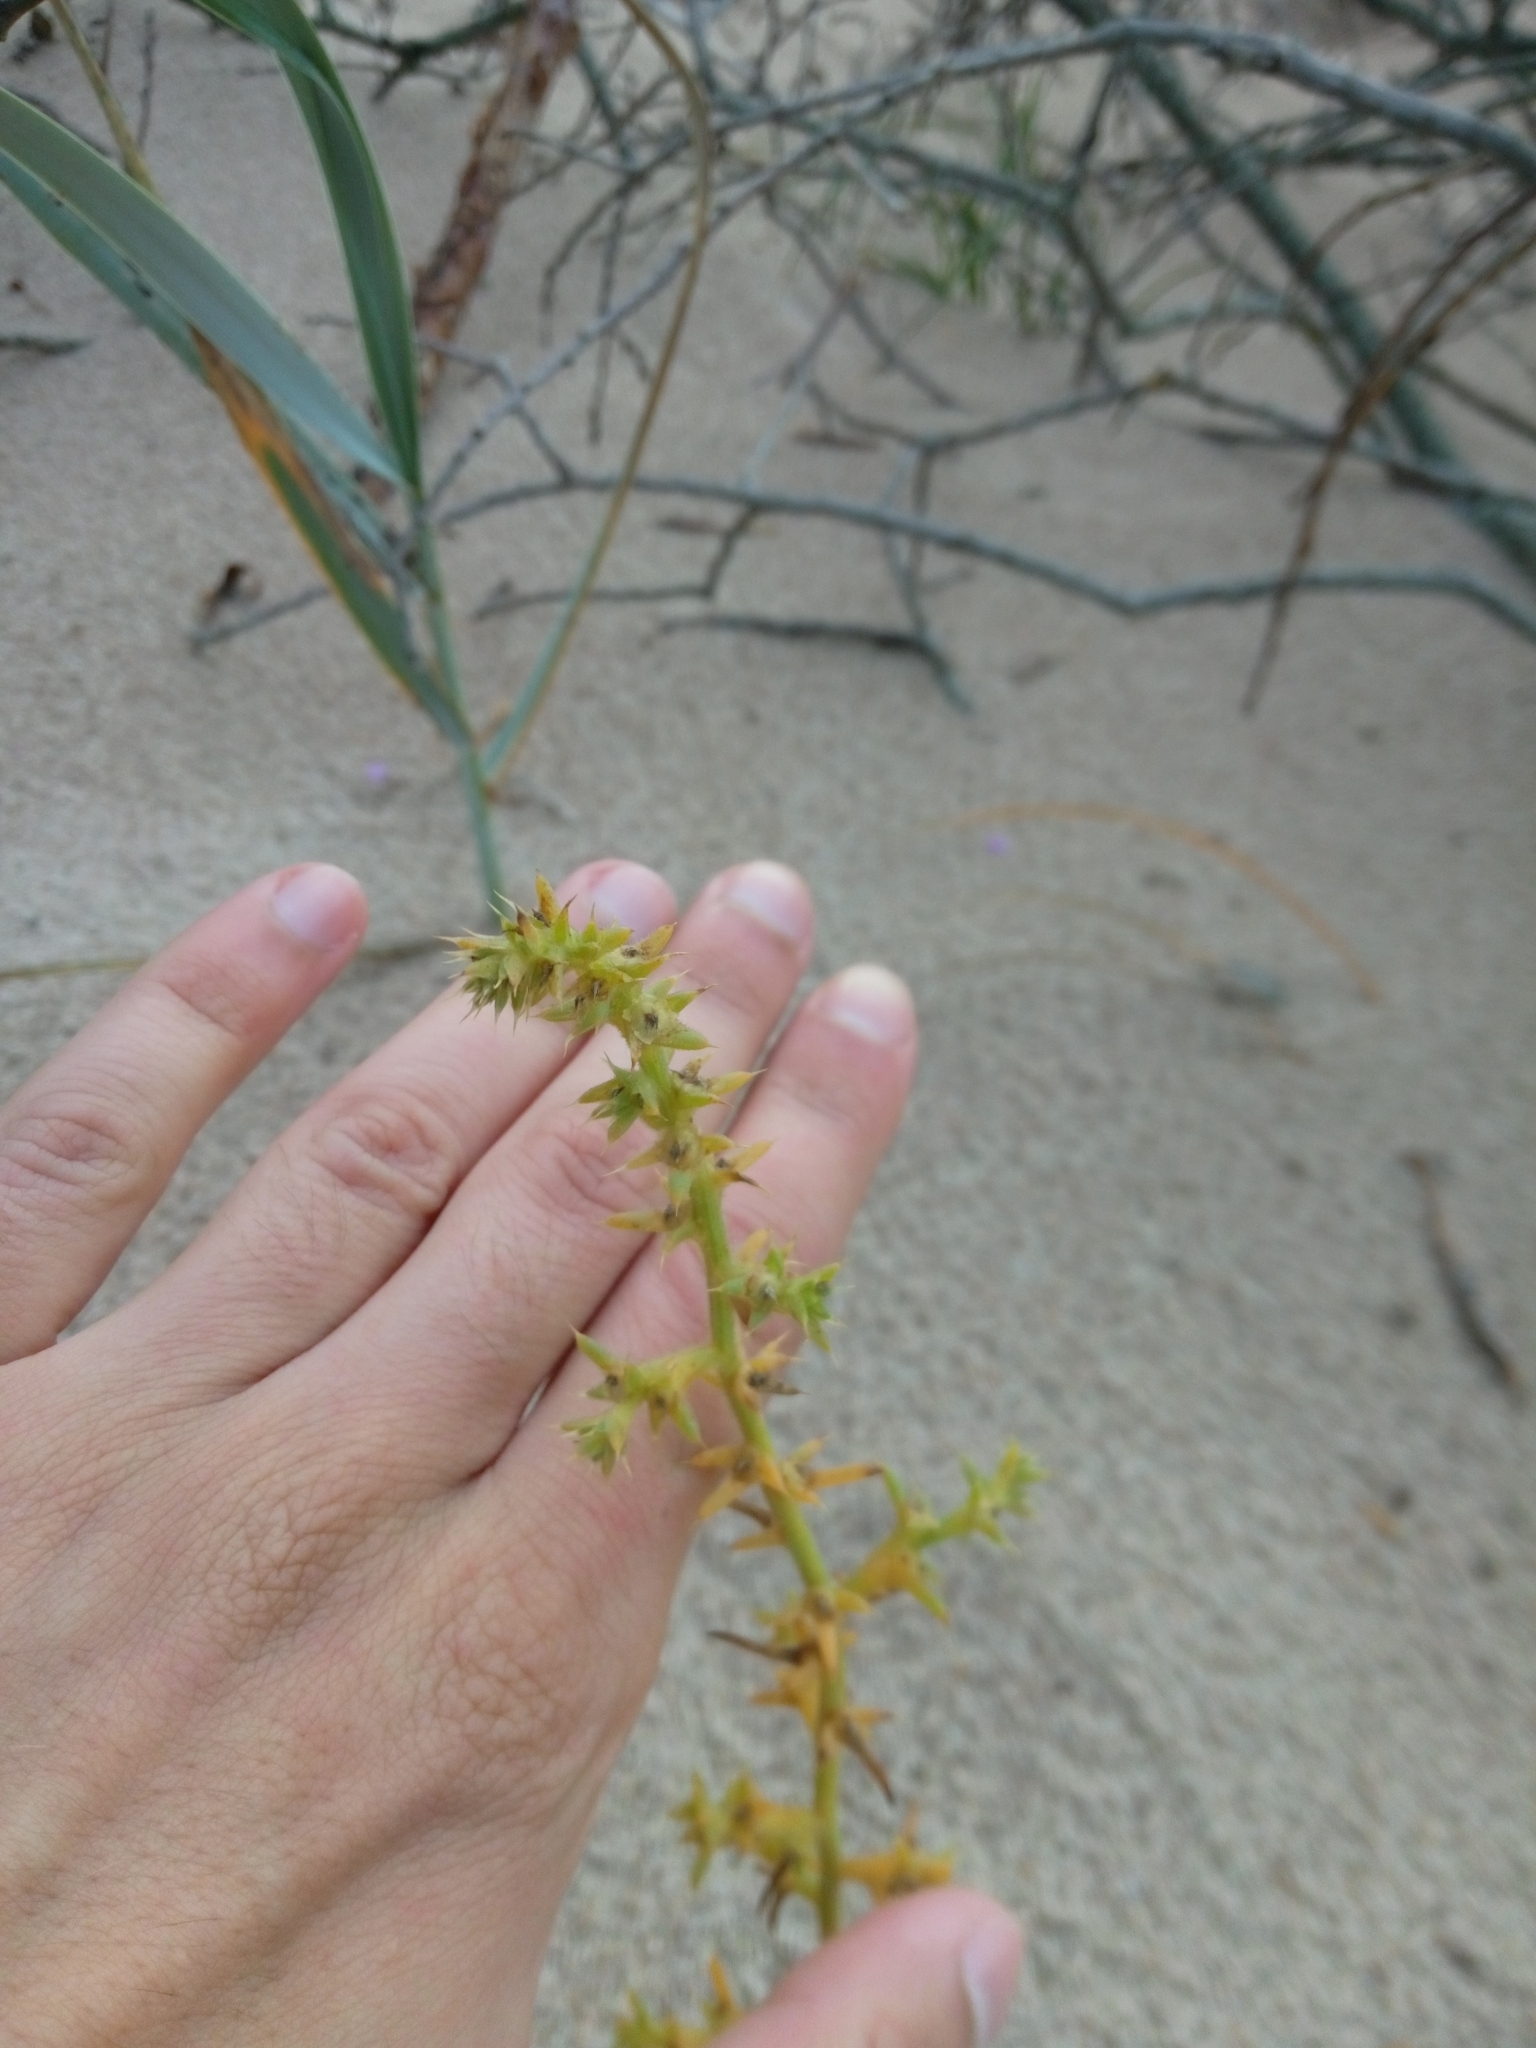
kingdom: Plantae
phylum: Tracheophyta
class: Magnoliopsida
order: Caryophyllales
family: Amaranthaceae
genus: Salsola
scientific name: Salsola kali
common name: Saltwort
